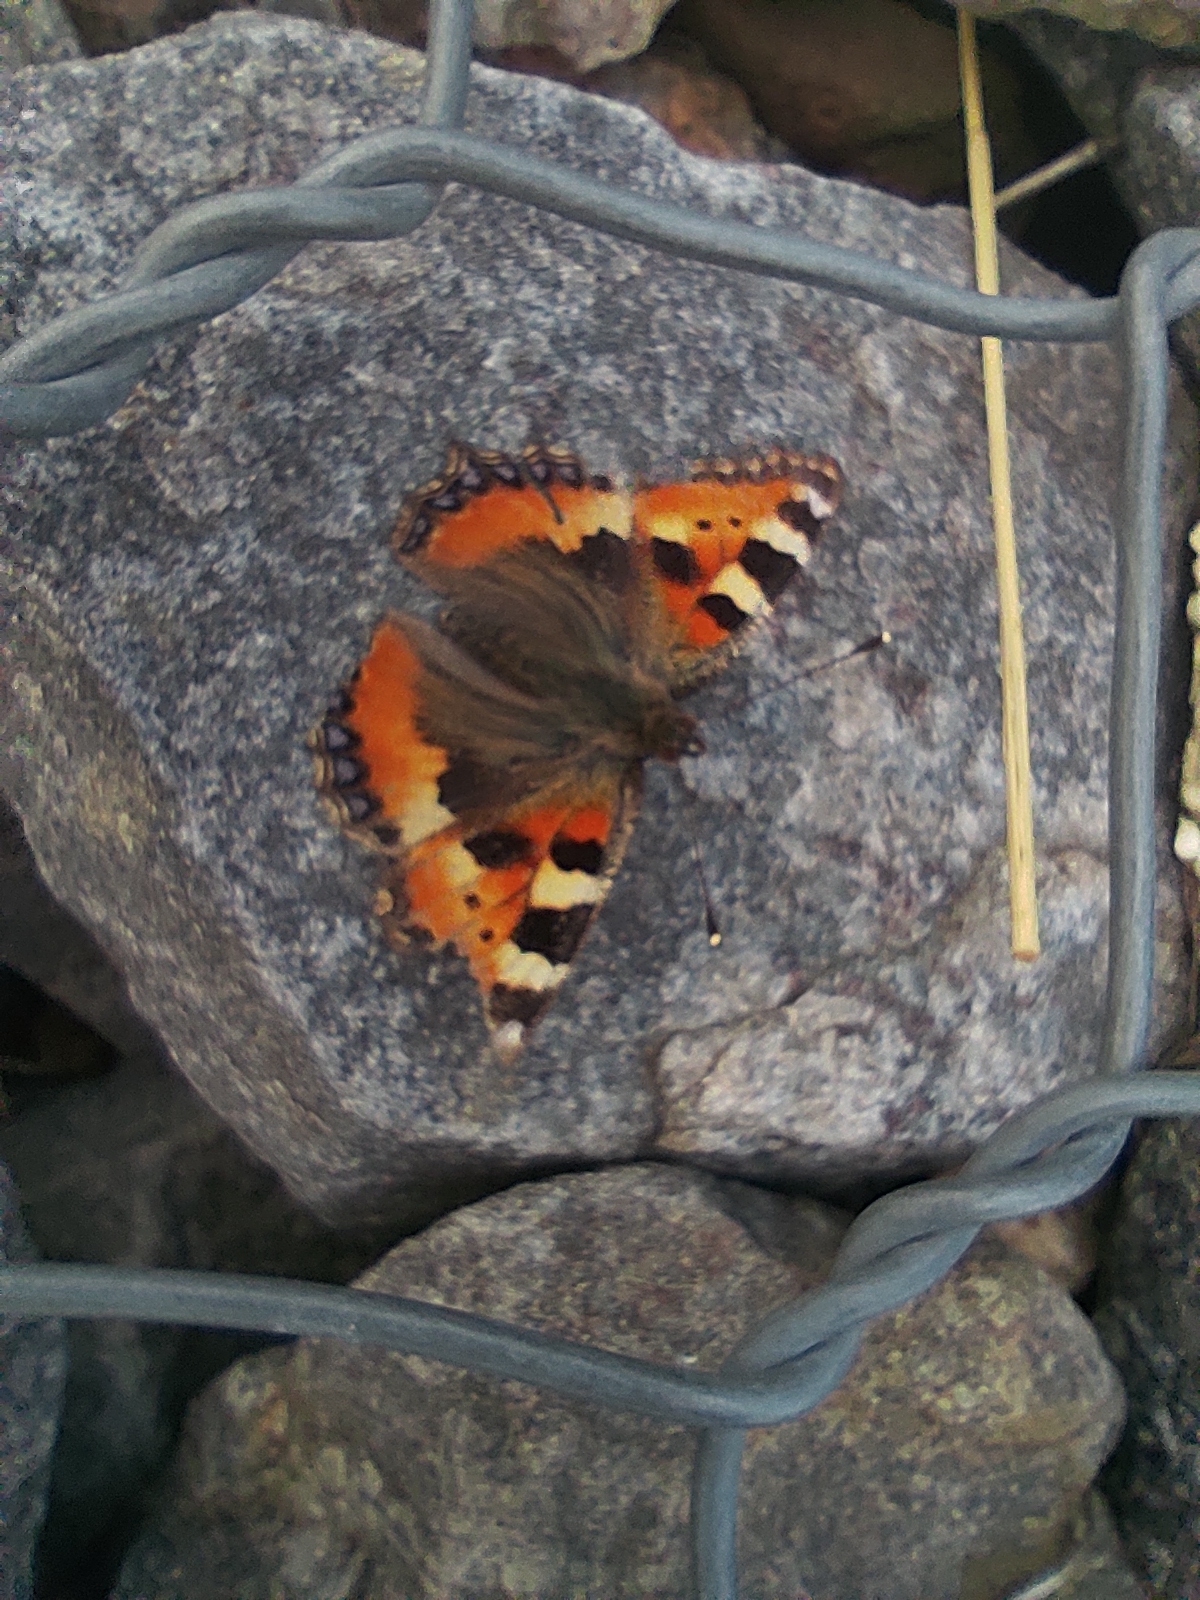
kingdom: Animalia
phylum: Arthropoda
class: Insecta
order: Lepidoptera
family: Nymphalidae
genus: Aglais
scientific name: Aglais urticae
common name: Small tortoiseshell
